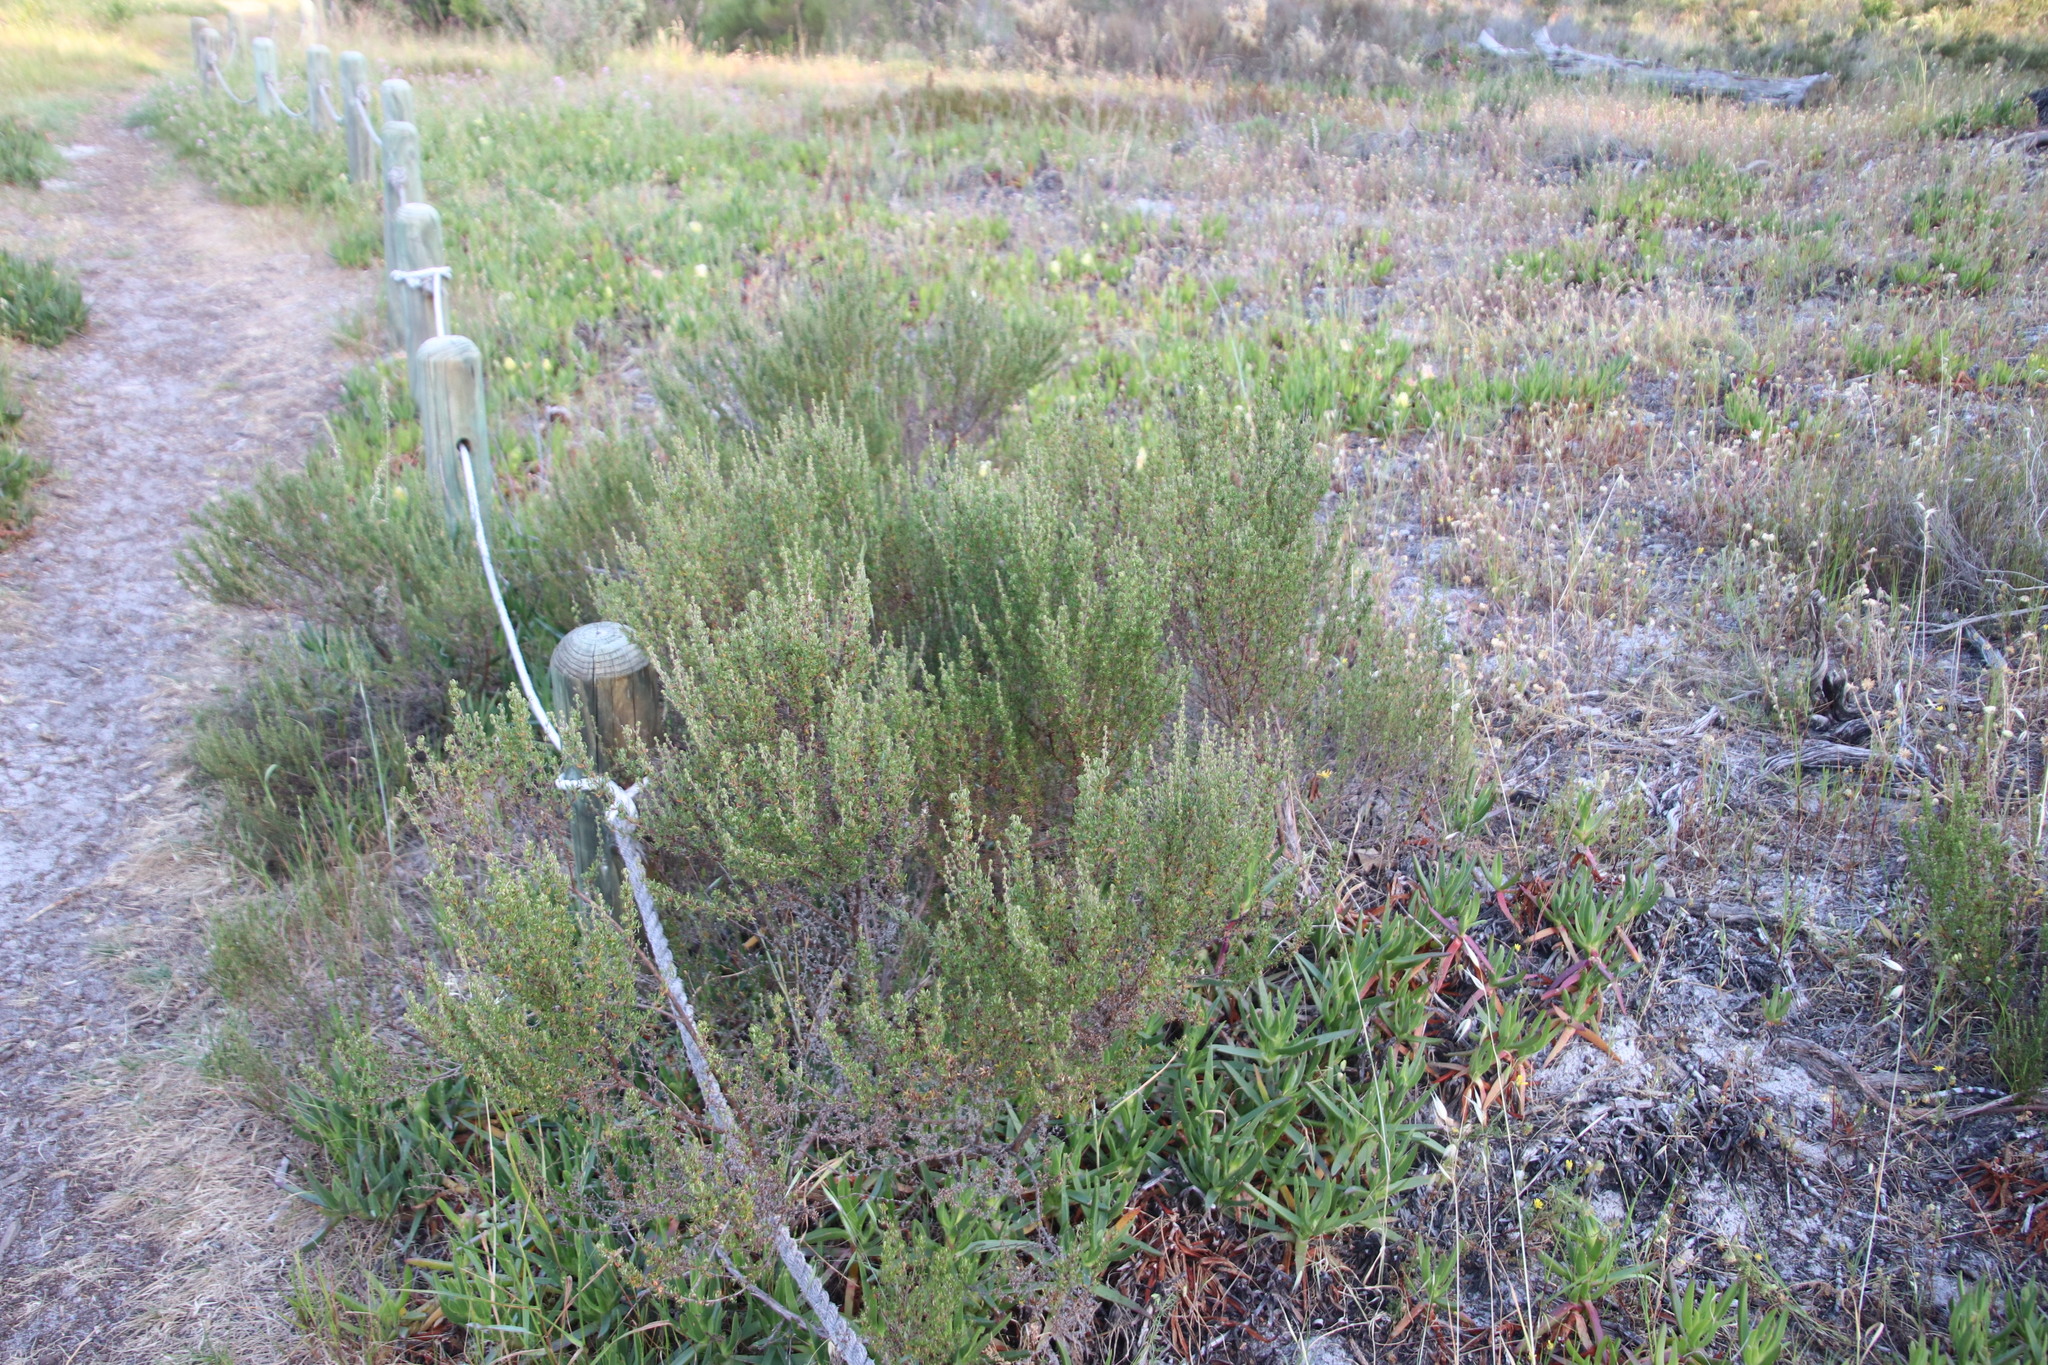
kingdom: Plantae
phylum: Tracheophyta
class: Magnoliopsida
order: Rosales
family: Rosaceae
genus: Cliffortia
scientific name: Cliffortia falcata
